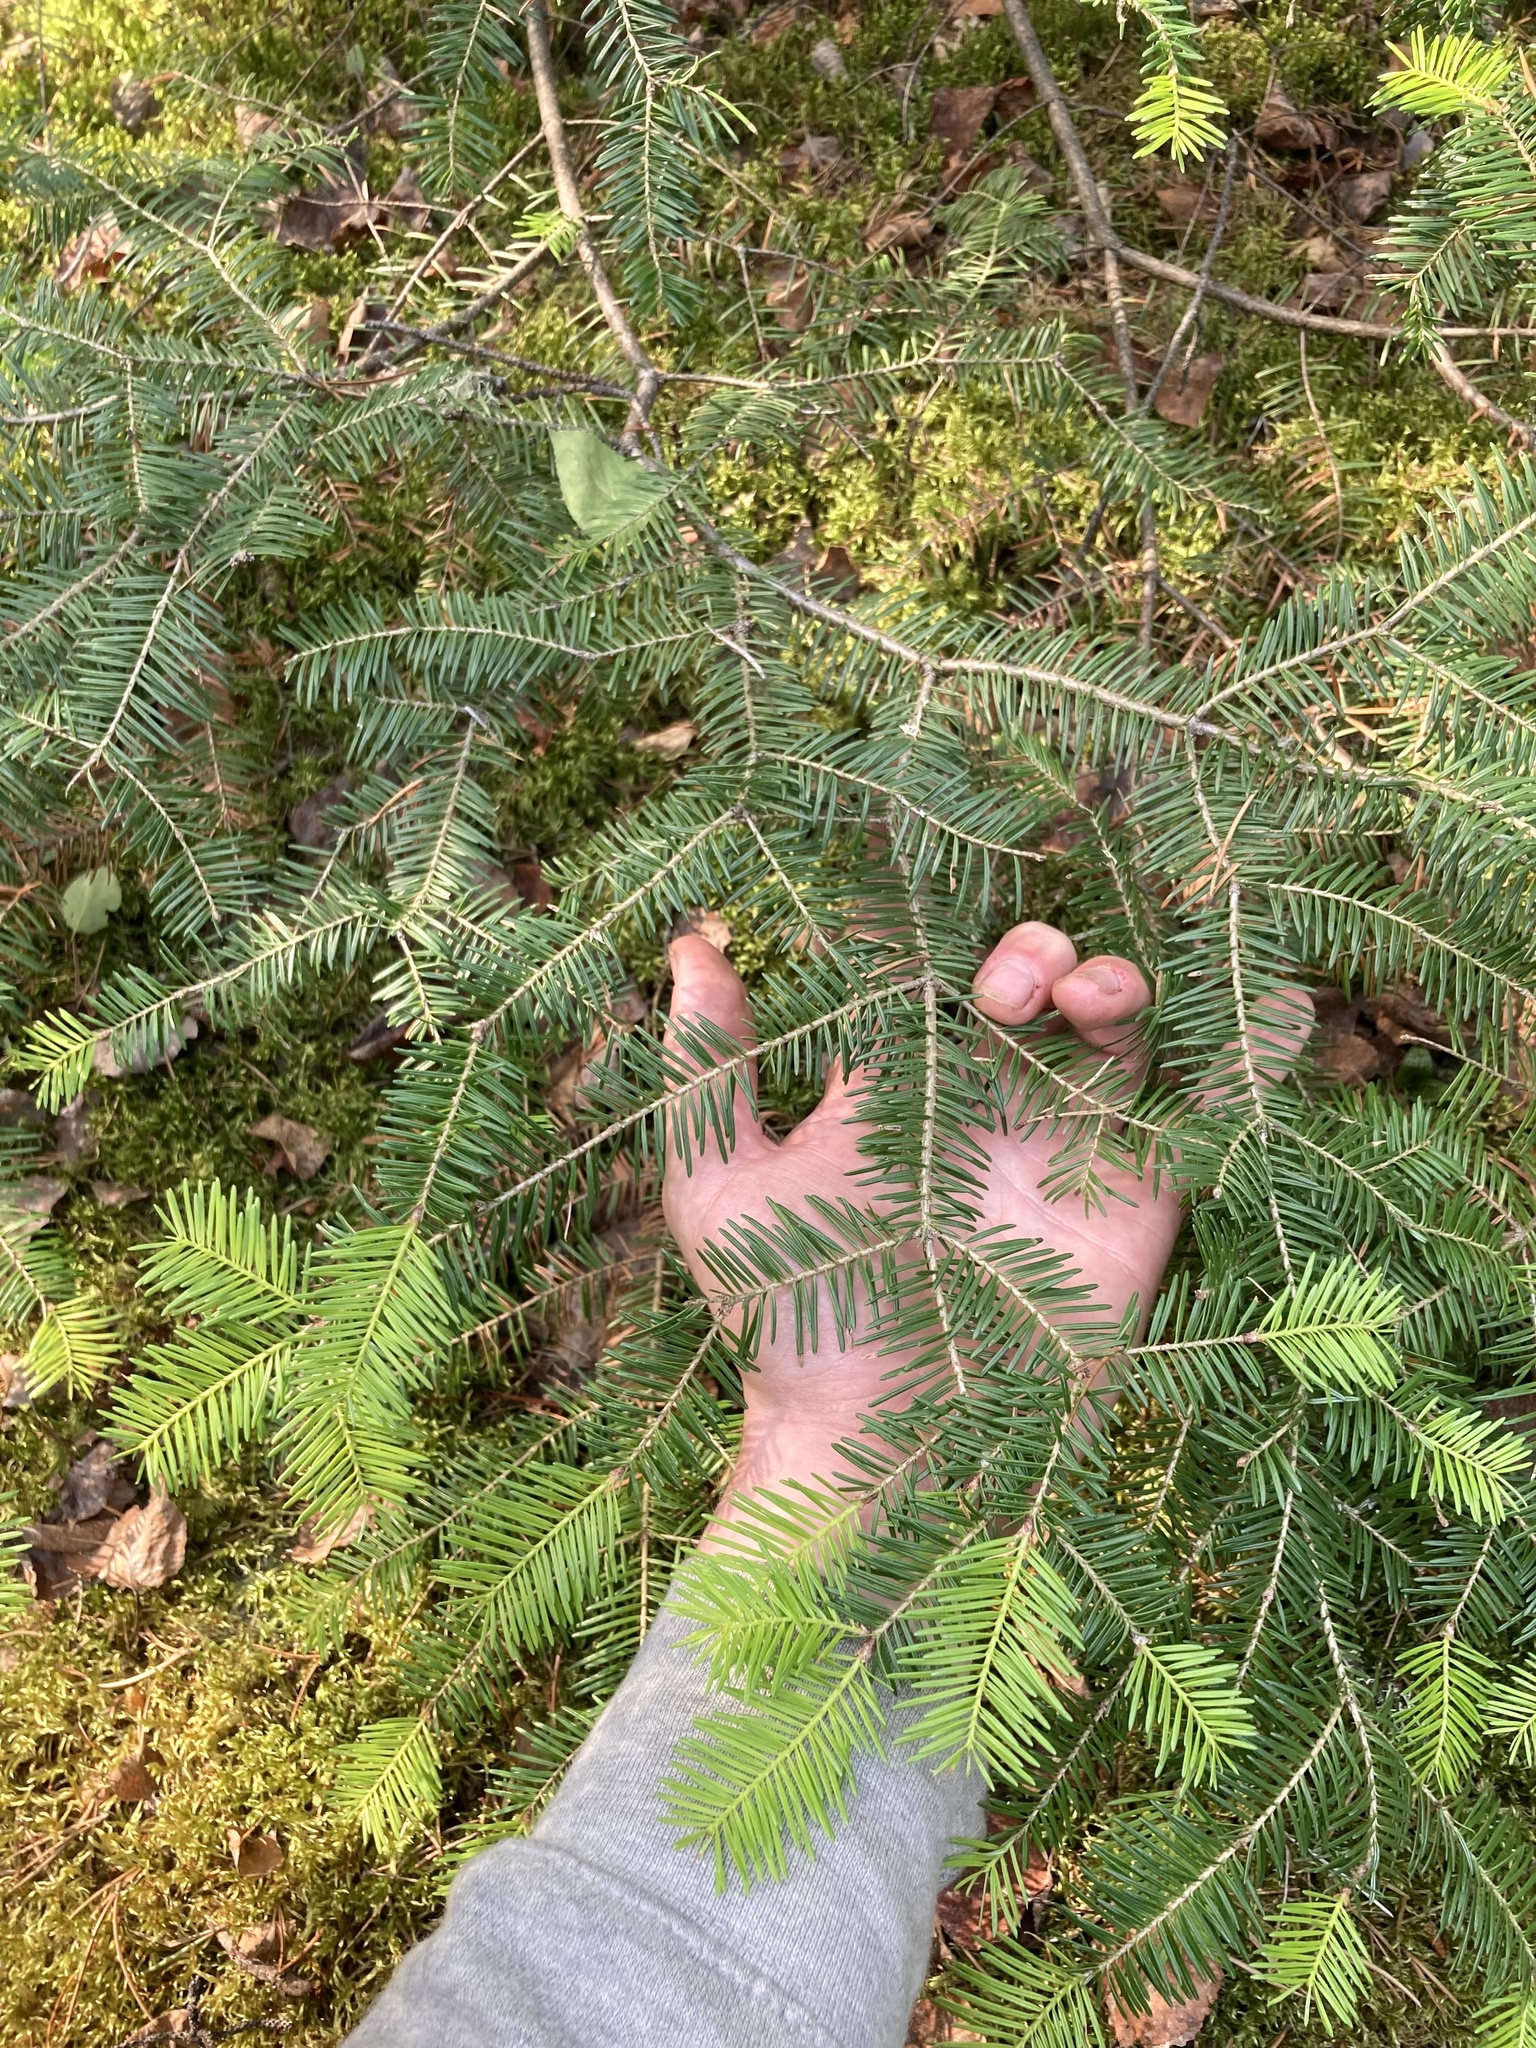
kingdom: Plantae
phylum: Tracheophyta
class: Pinopsida
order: Pinales
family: Pinaceae
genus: Abies
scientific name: Abies balsamea
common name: Balsam fir
